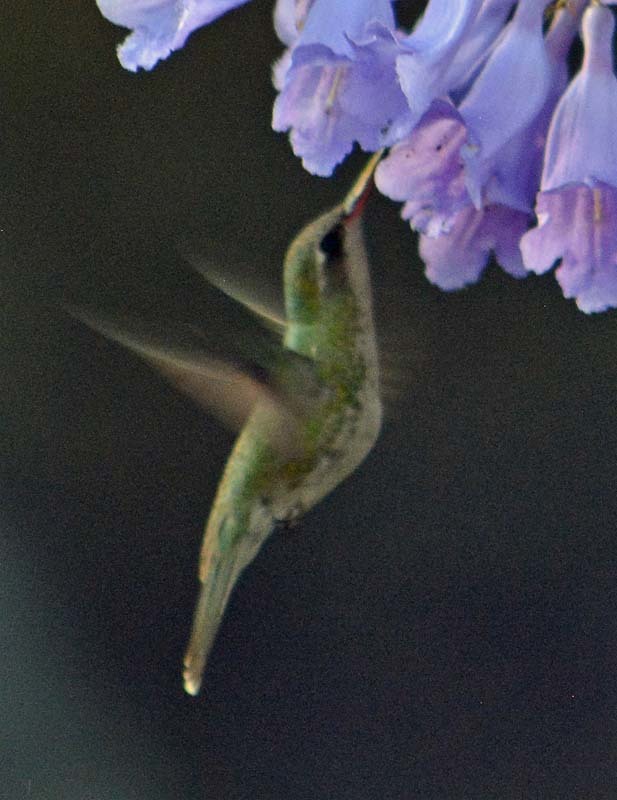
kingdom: Animalia
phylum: Chordata
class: Aves
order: Apodiformes
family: Trochilidae
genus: Cynanthus
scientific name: Cynanthus latirostris
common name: Broad-billed hummingbird
